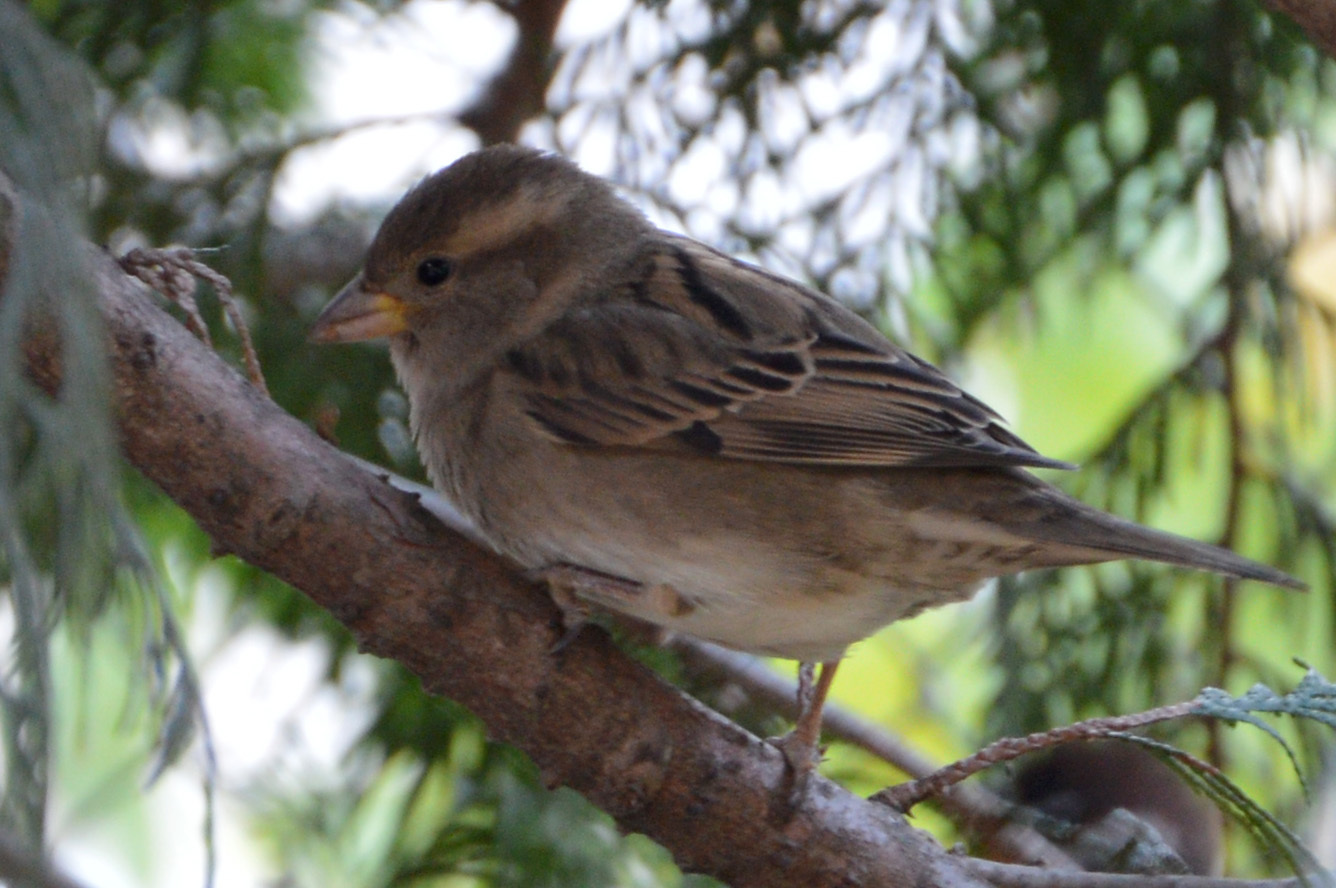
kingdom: Animalia
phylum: Chordata
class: Aves
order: Passeriformes
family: Passeridae
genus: Passer
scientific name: Passer domesticus
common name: House sparrow
